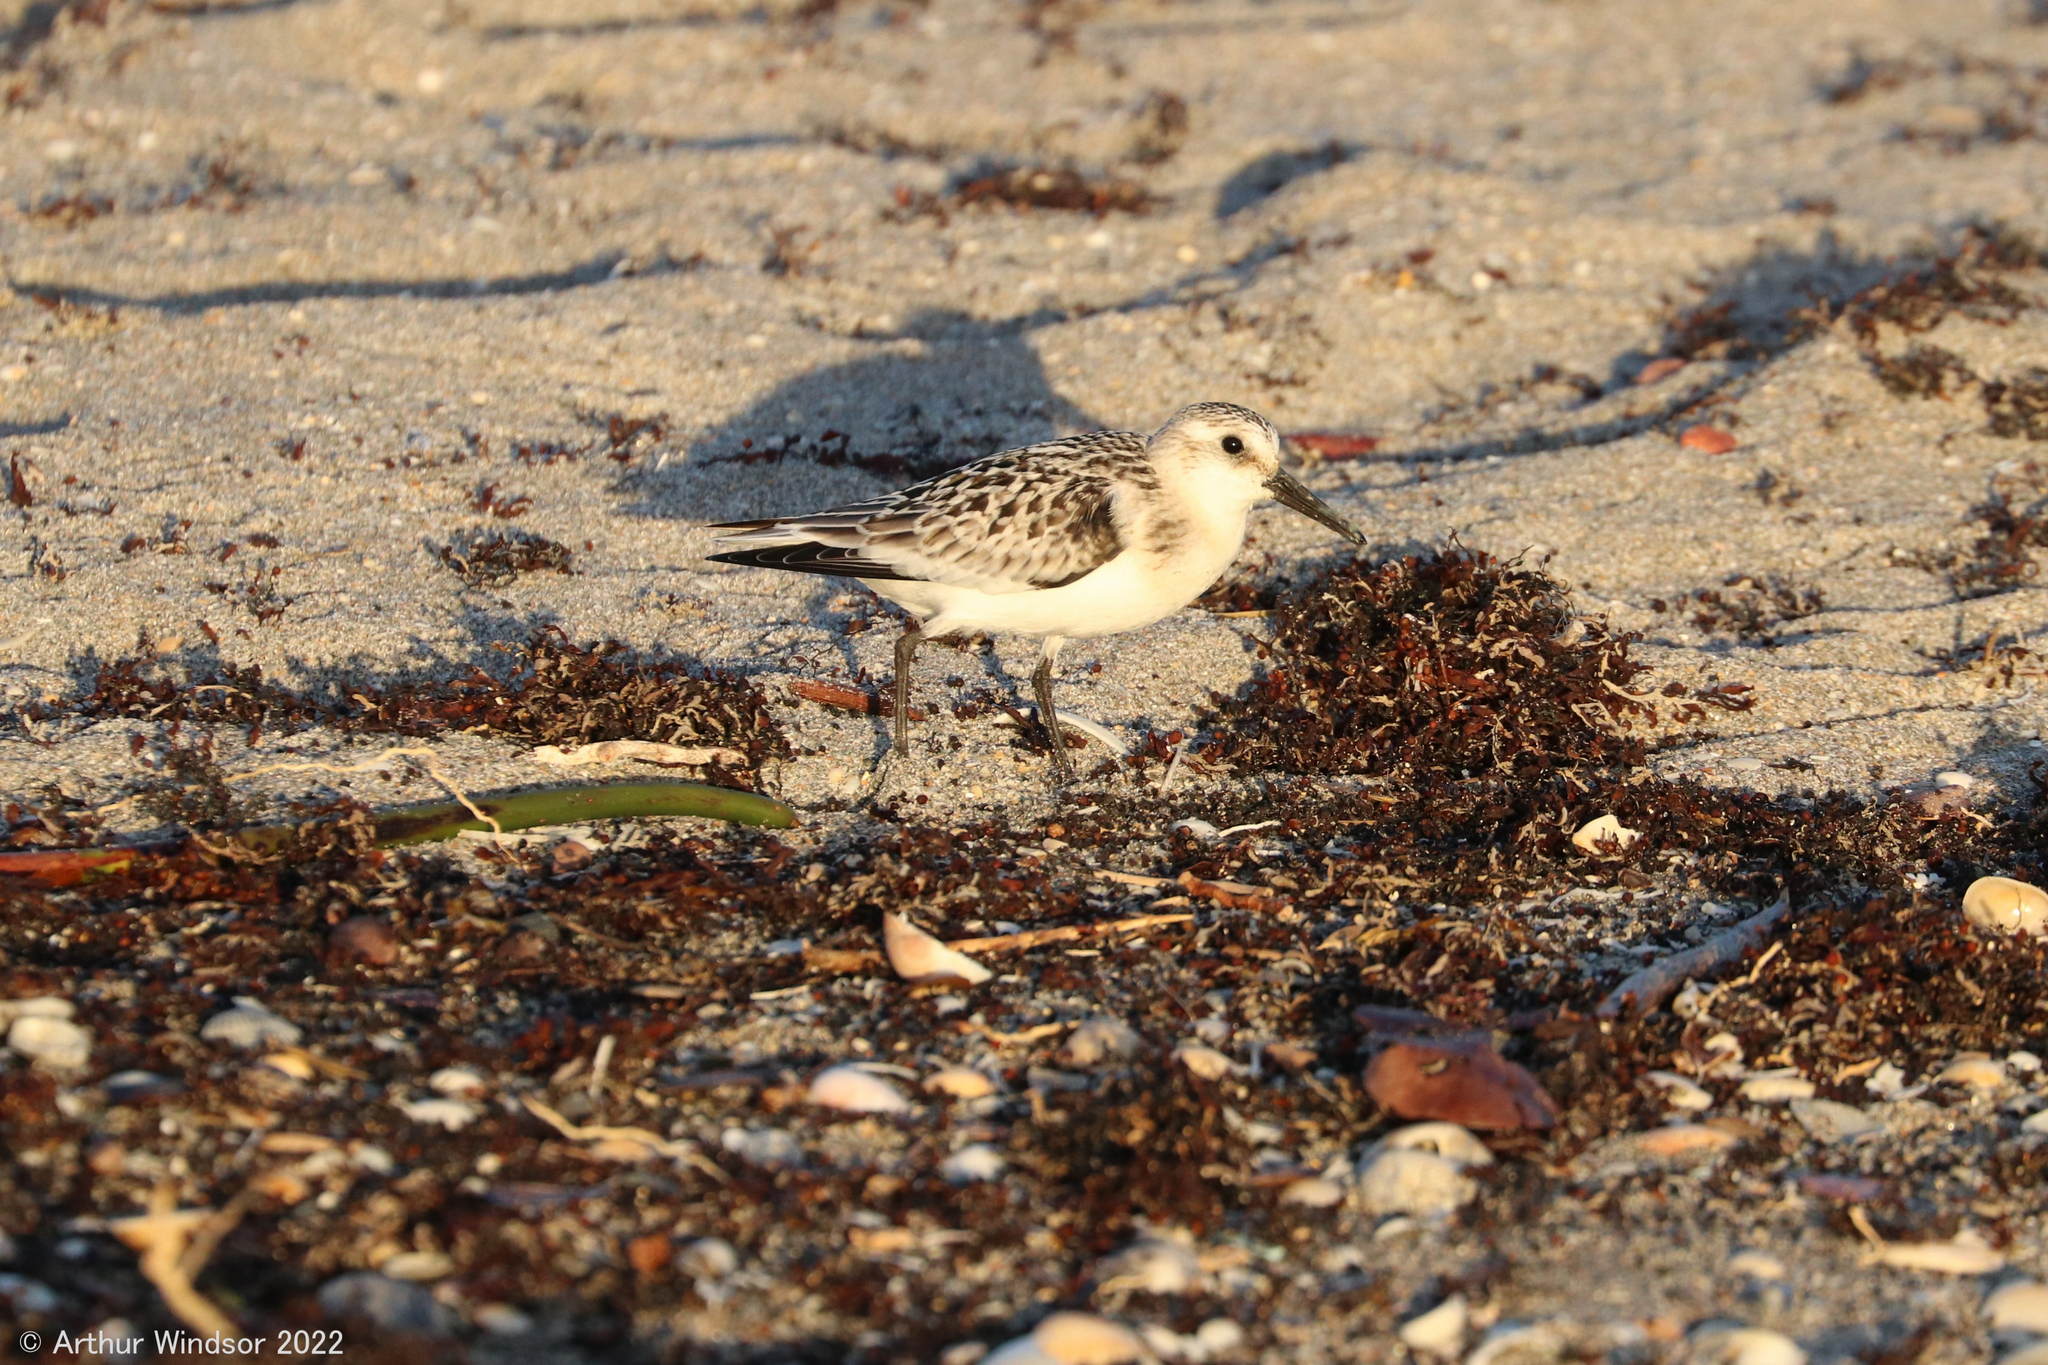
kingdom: Animalia
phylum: Chordata
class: Aves
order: Charadriiformes
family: Scolopacidae
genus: Calidris
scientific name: Calidris alba
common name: Sanderling
